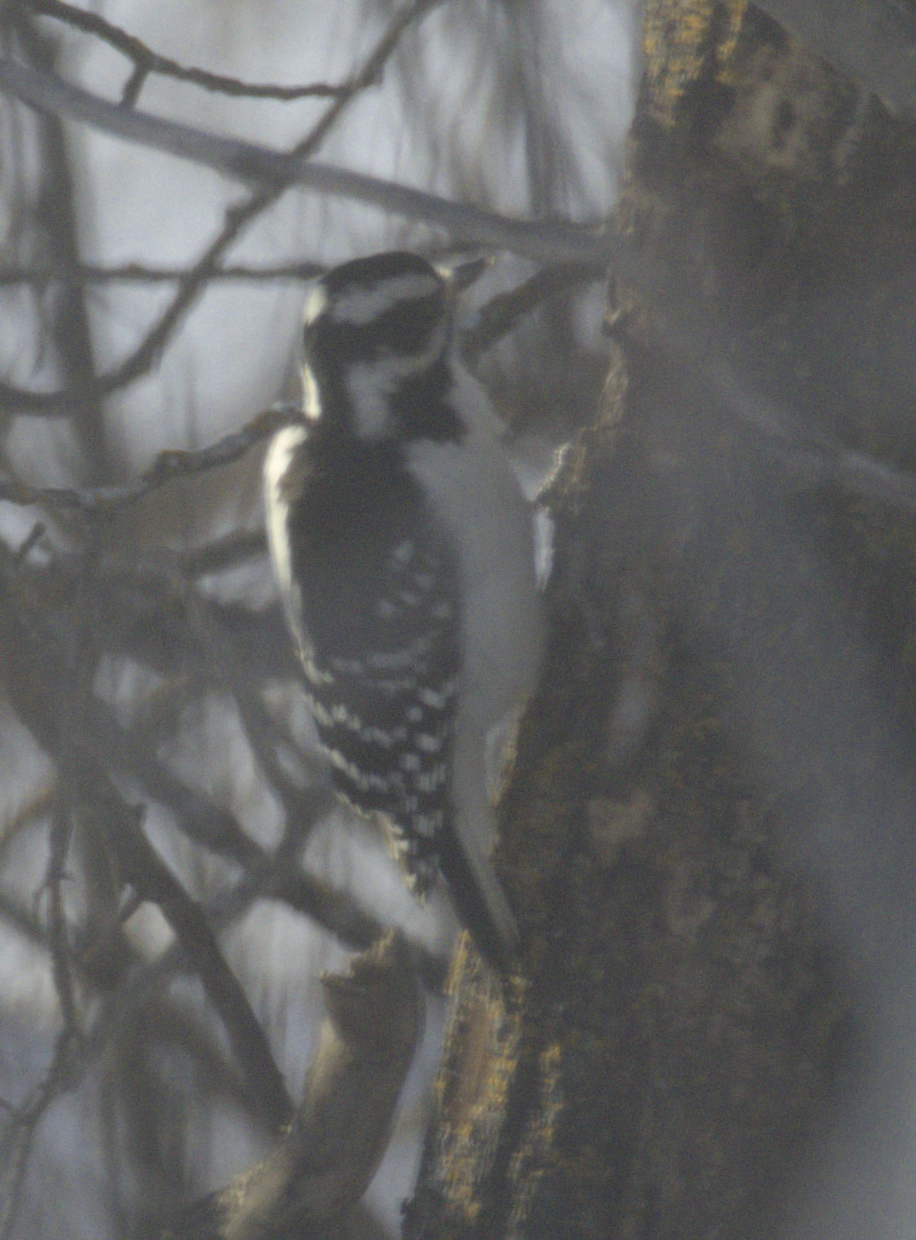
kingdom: Animalia
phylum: Chordata
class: Aves
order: Piciformes
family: Picidae
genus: Leuconotopicus
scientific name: Leuconotopicus villosus
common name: Hairy woodpecker
